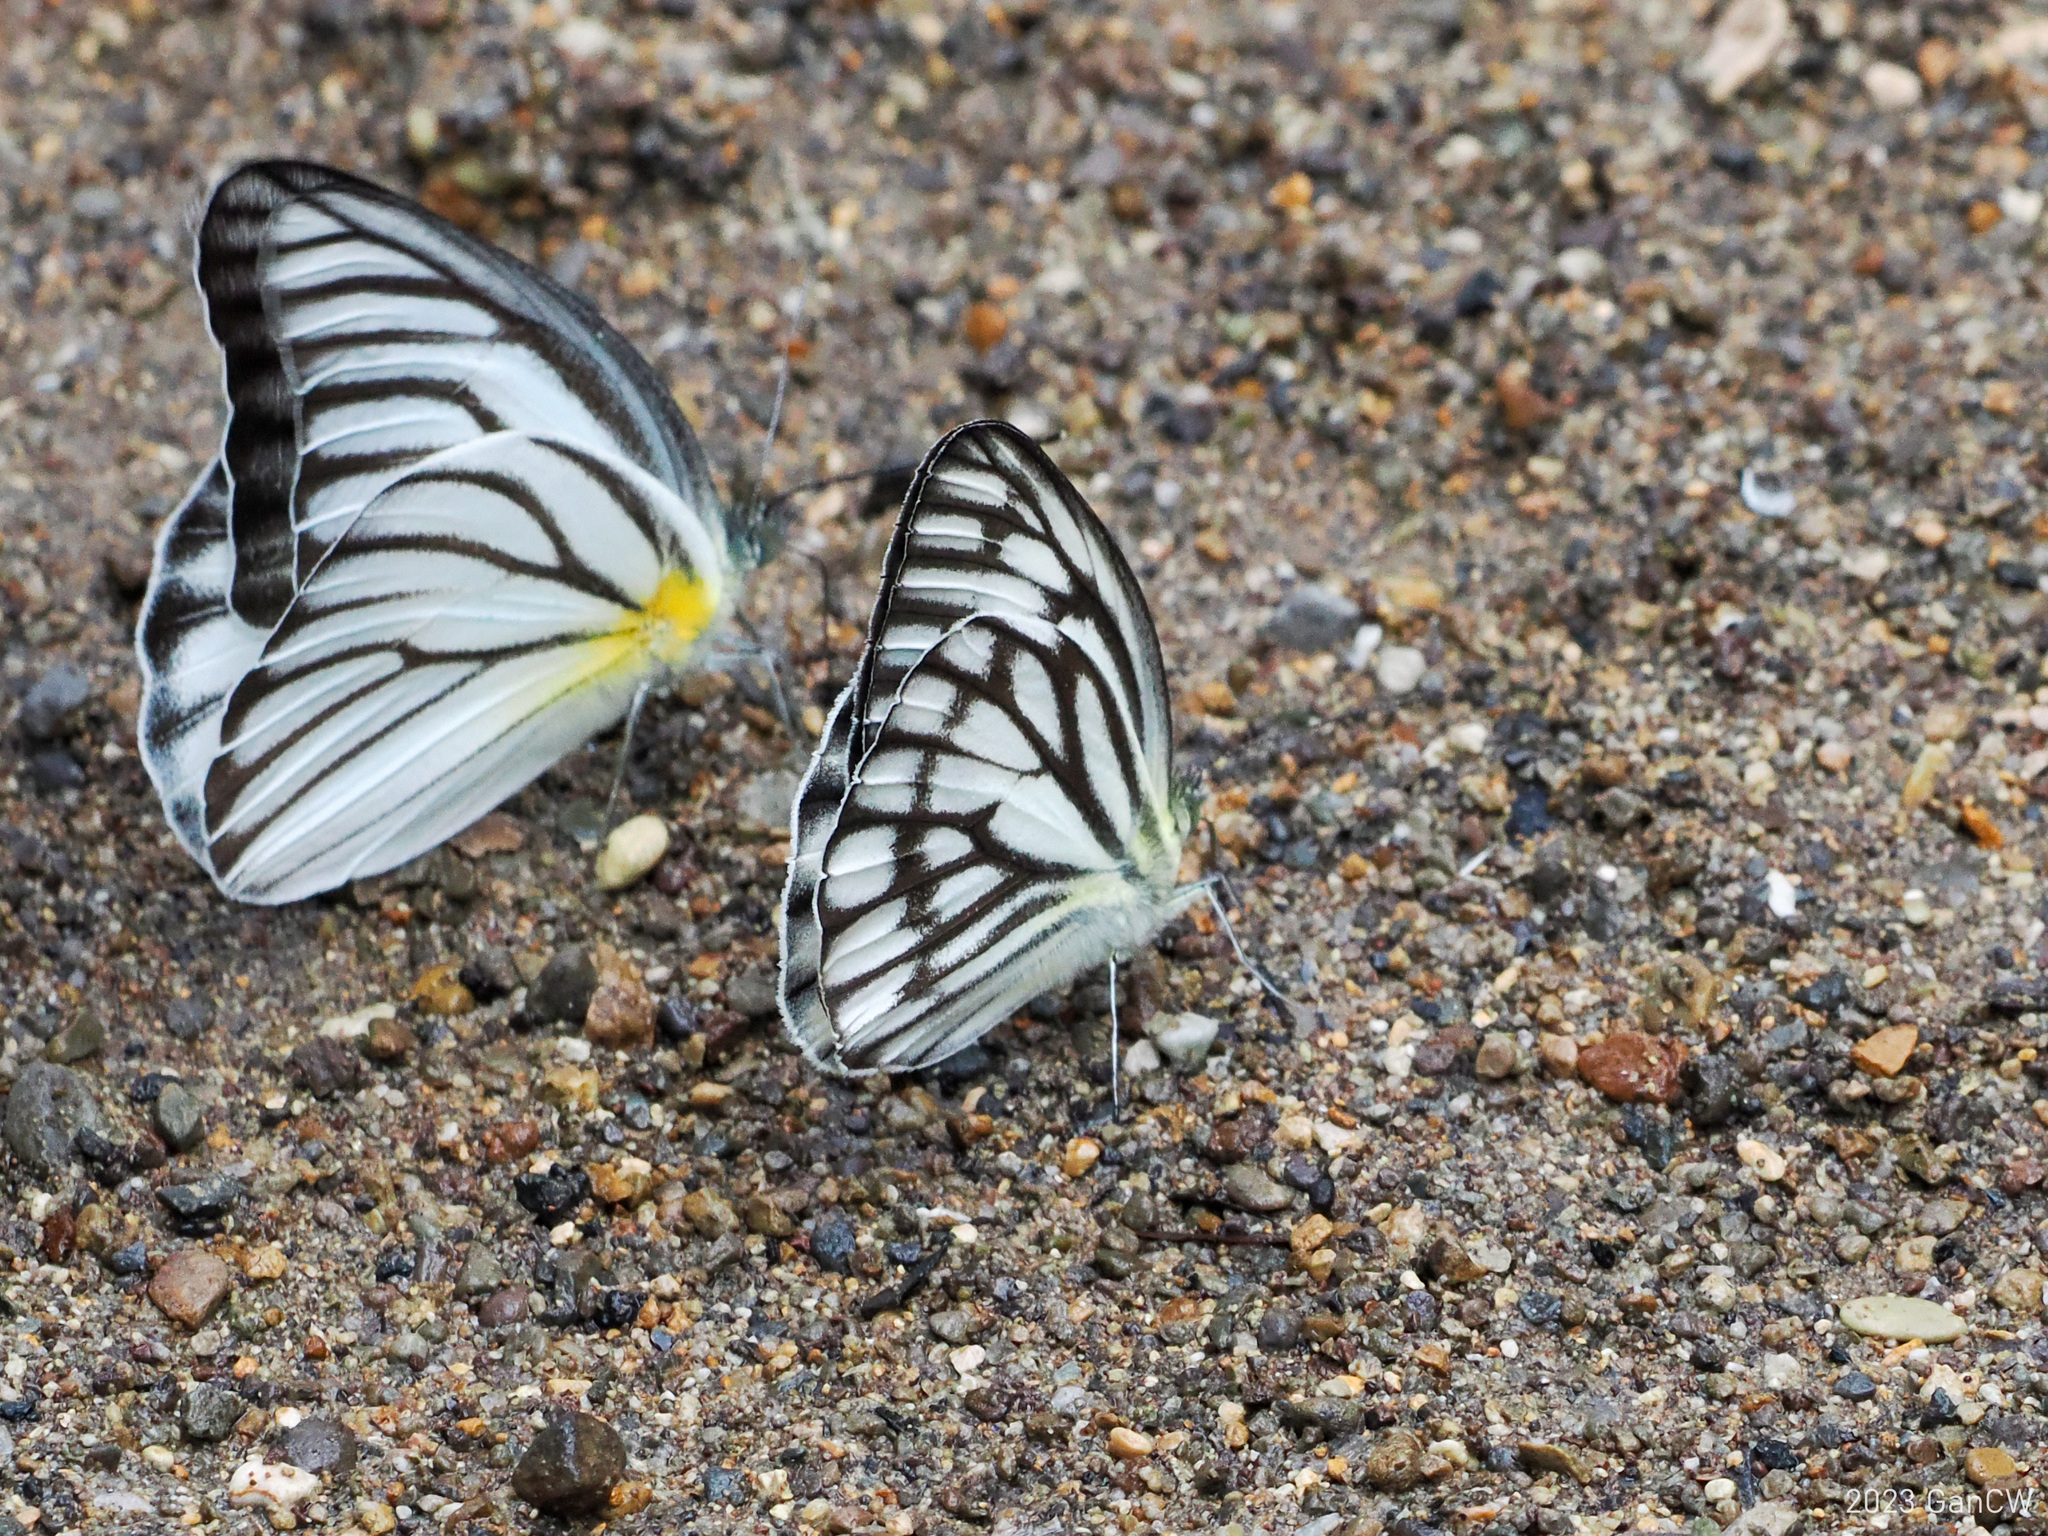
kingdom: Animalia
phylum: Arthropoda
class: Insecta
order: Lepidoptera
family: Pieridae
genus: Cepora
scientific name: Cepora fora
